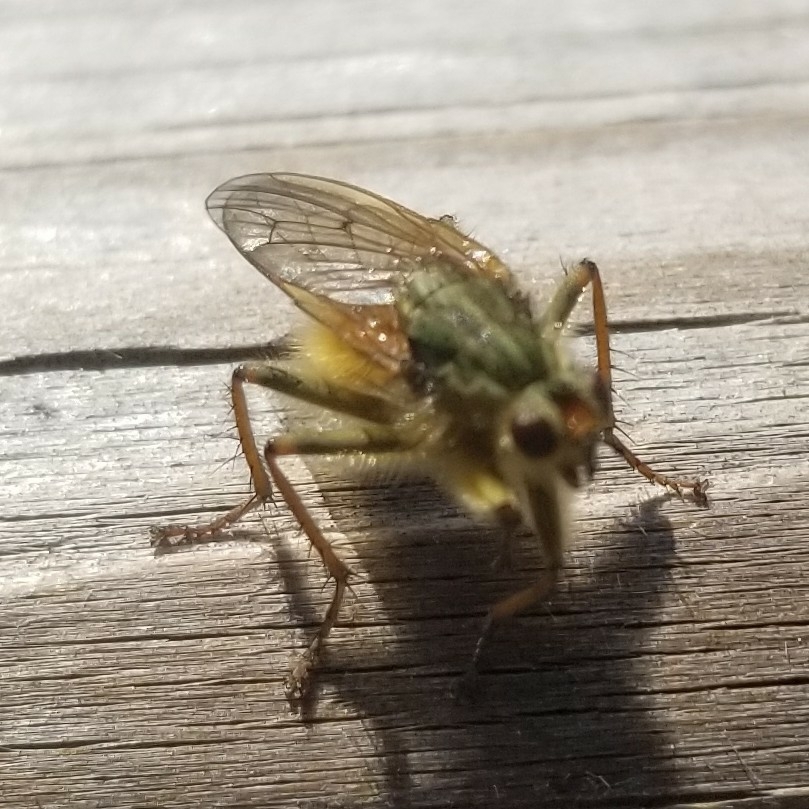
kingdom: Animalia
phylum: Arthropoda
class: Insecta
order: Diptera
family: Scathophagidae
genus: Scathophaga
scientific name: Scathophaga stercoraria
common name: Yellow dung fly
